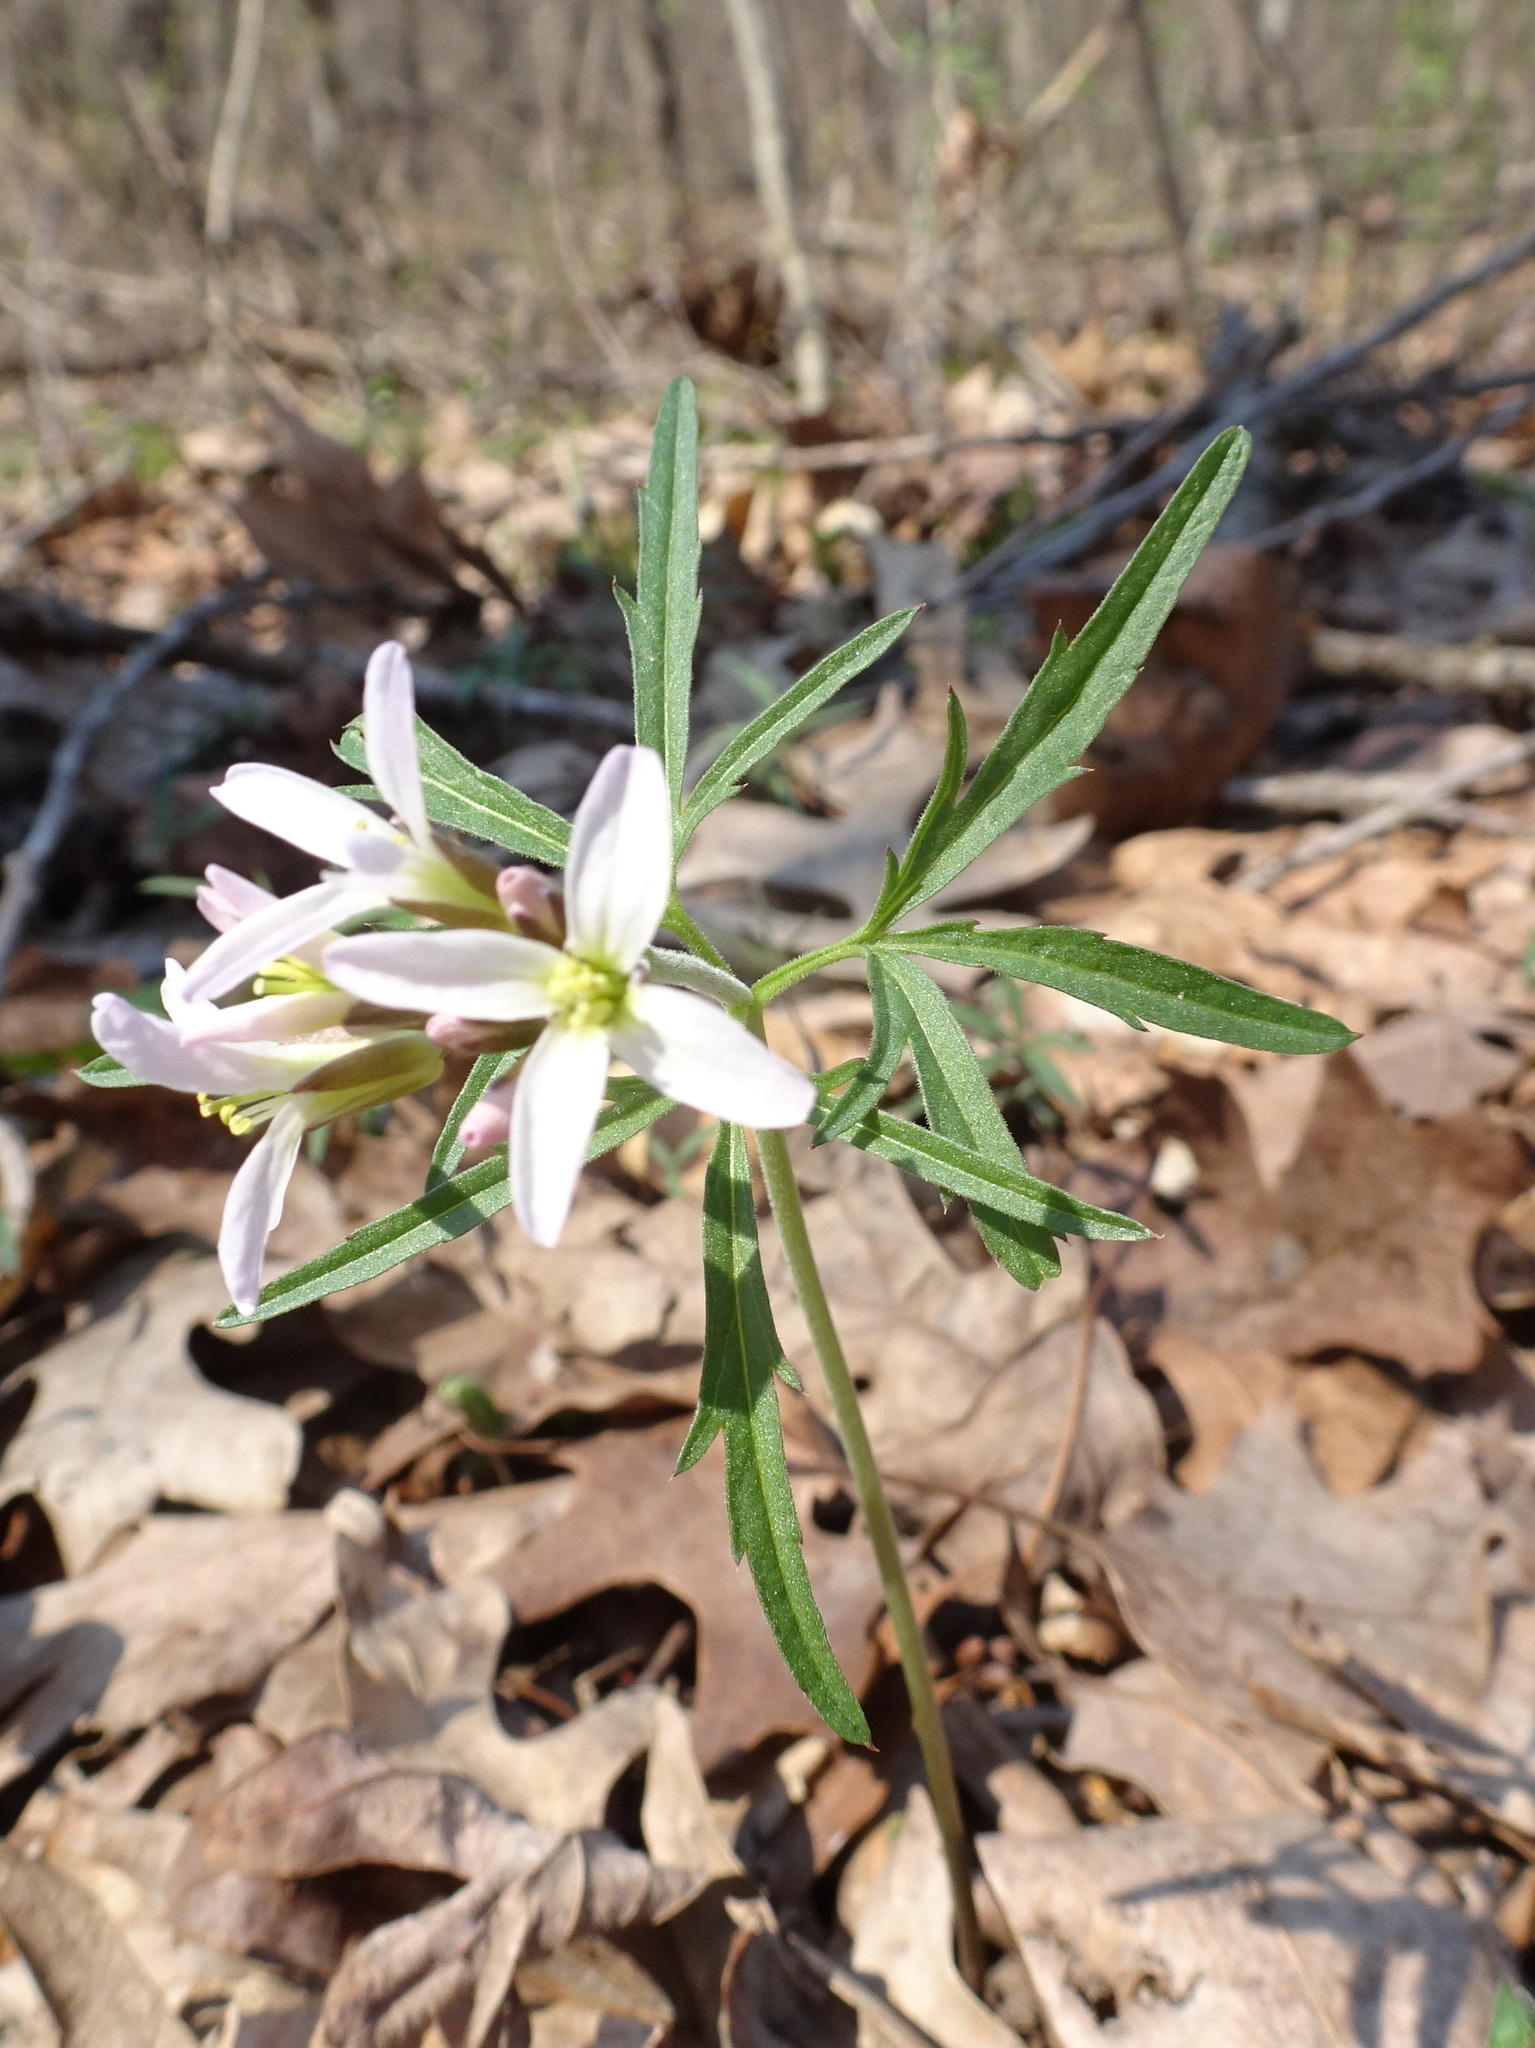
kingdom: Plantae
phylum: Tracheophyta
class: Magnoliopsida
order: Brassicales
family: Brassicaceae
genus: Cardamine
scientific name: Cardamine concatenata
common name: Cut-leaf toothcup
